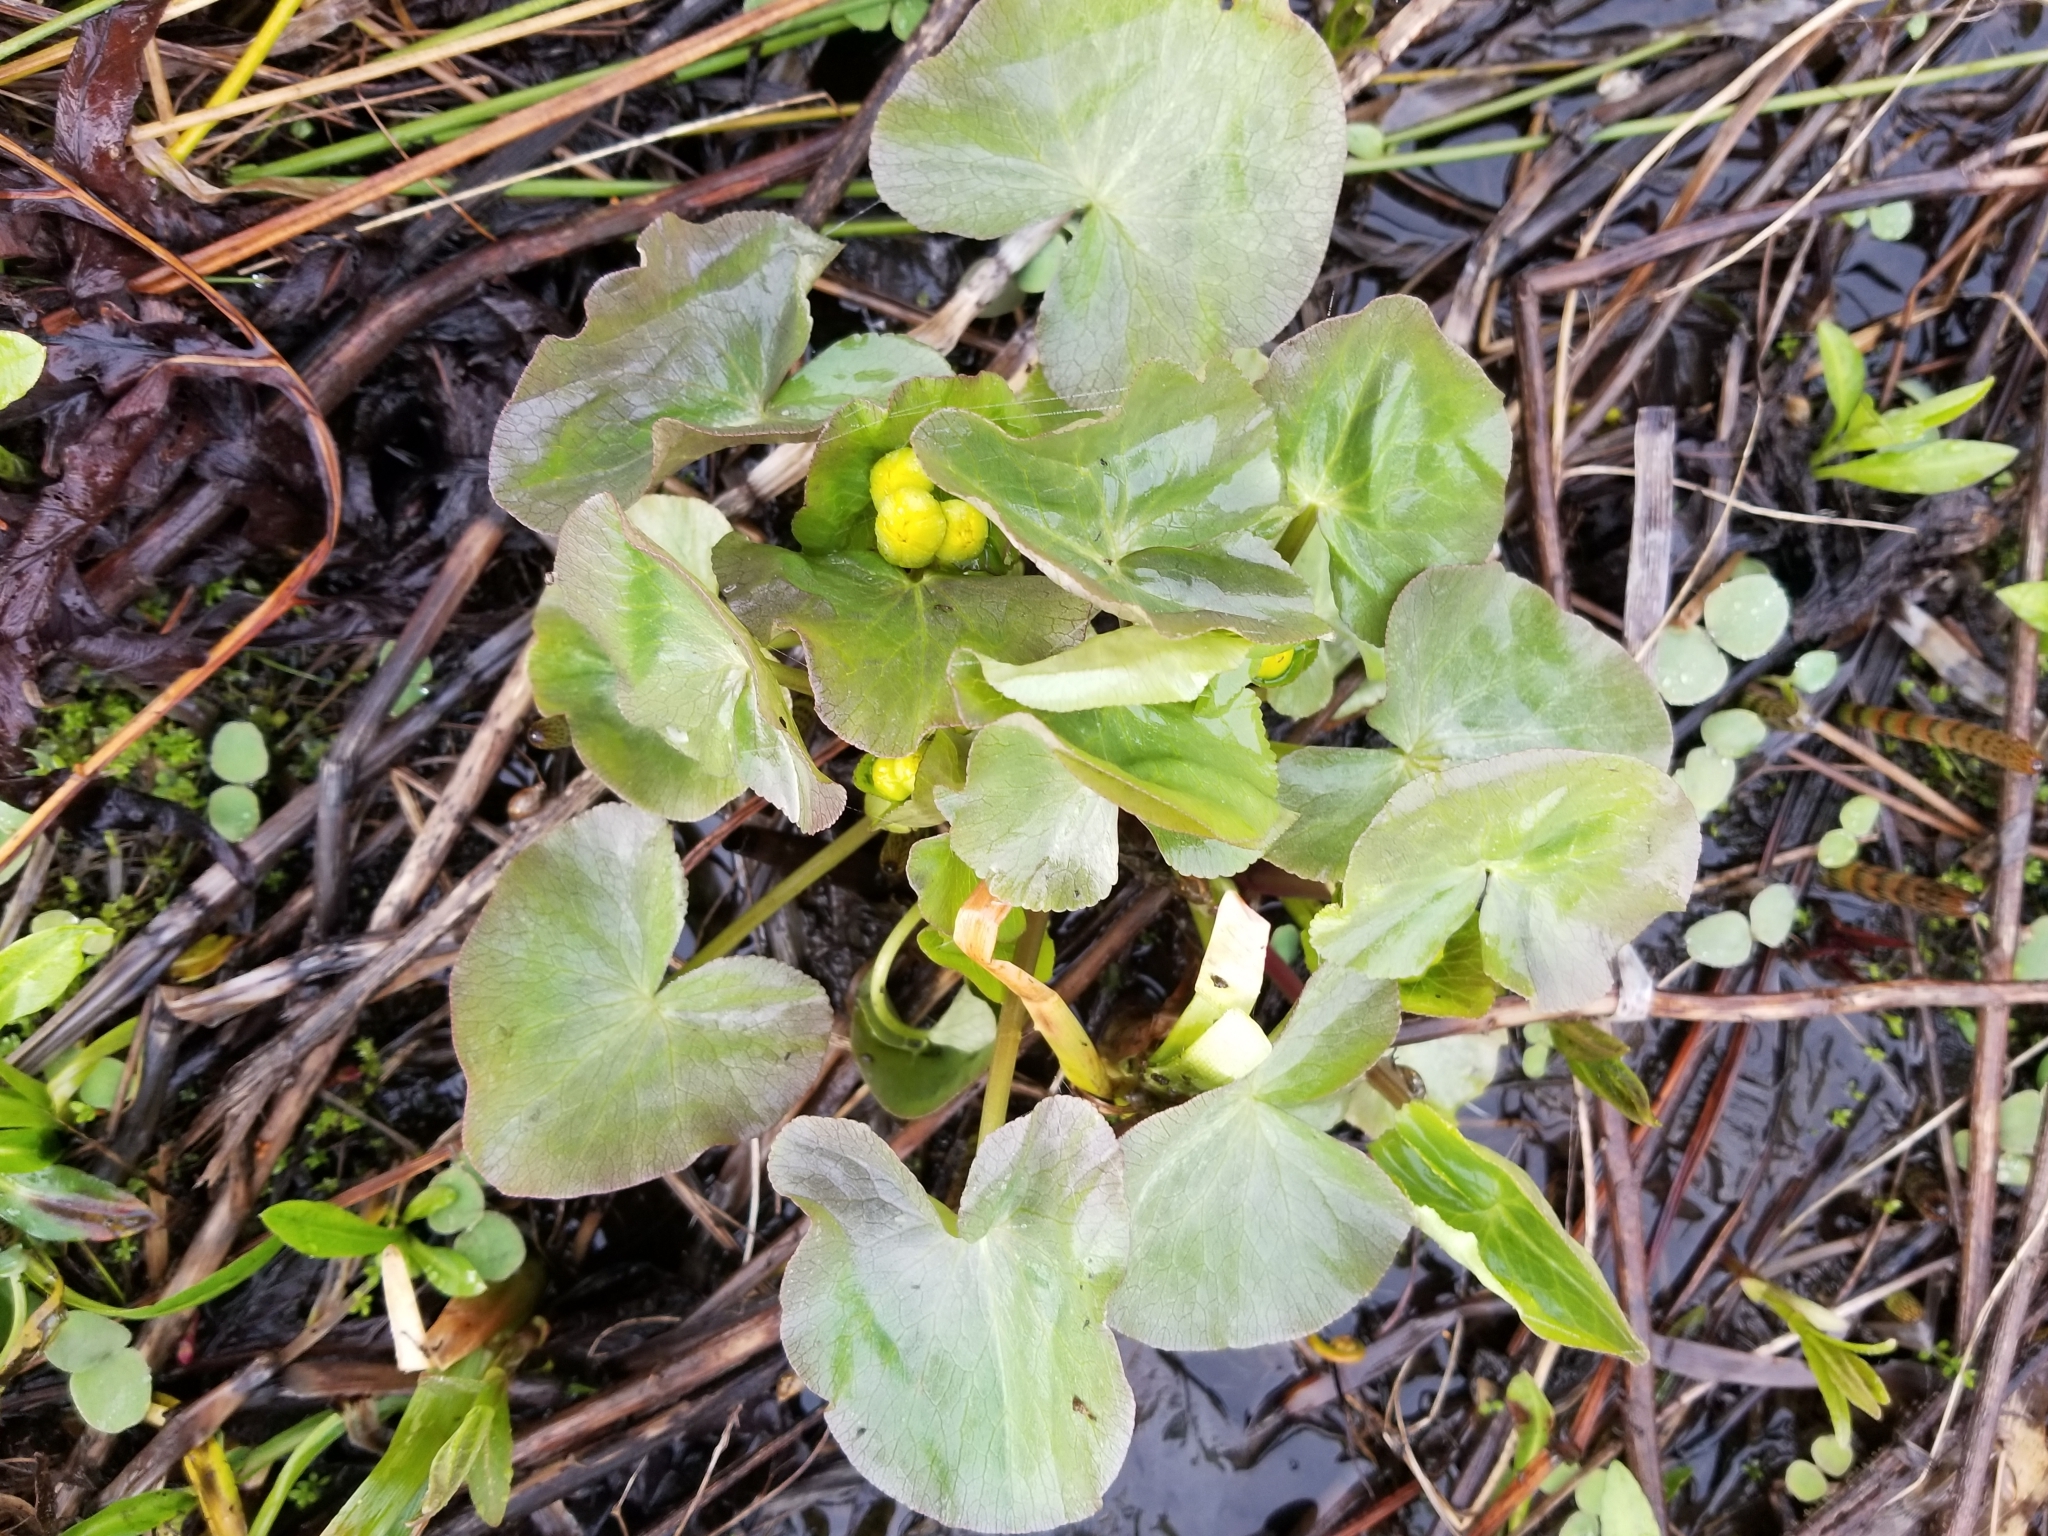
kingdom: Plantae
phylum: Tracheophyta
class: Magnoliopsida
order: Ranunculales
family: Ranunculaceae
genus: Caltha
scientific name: Caltha palustris
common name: Marsh marigold
